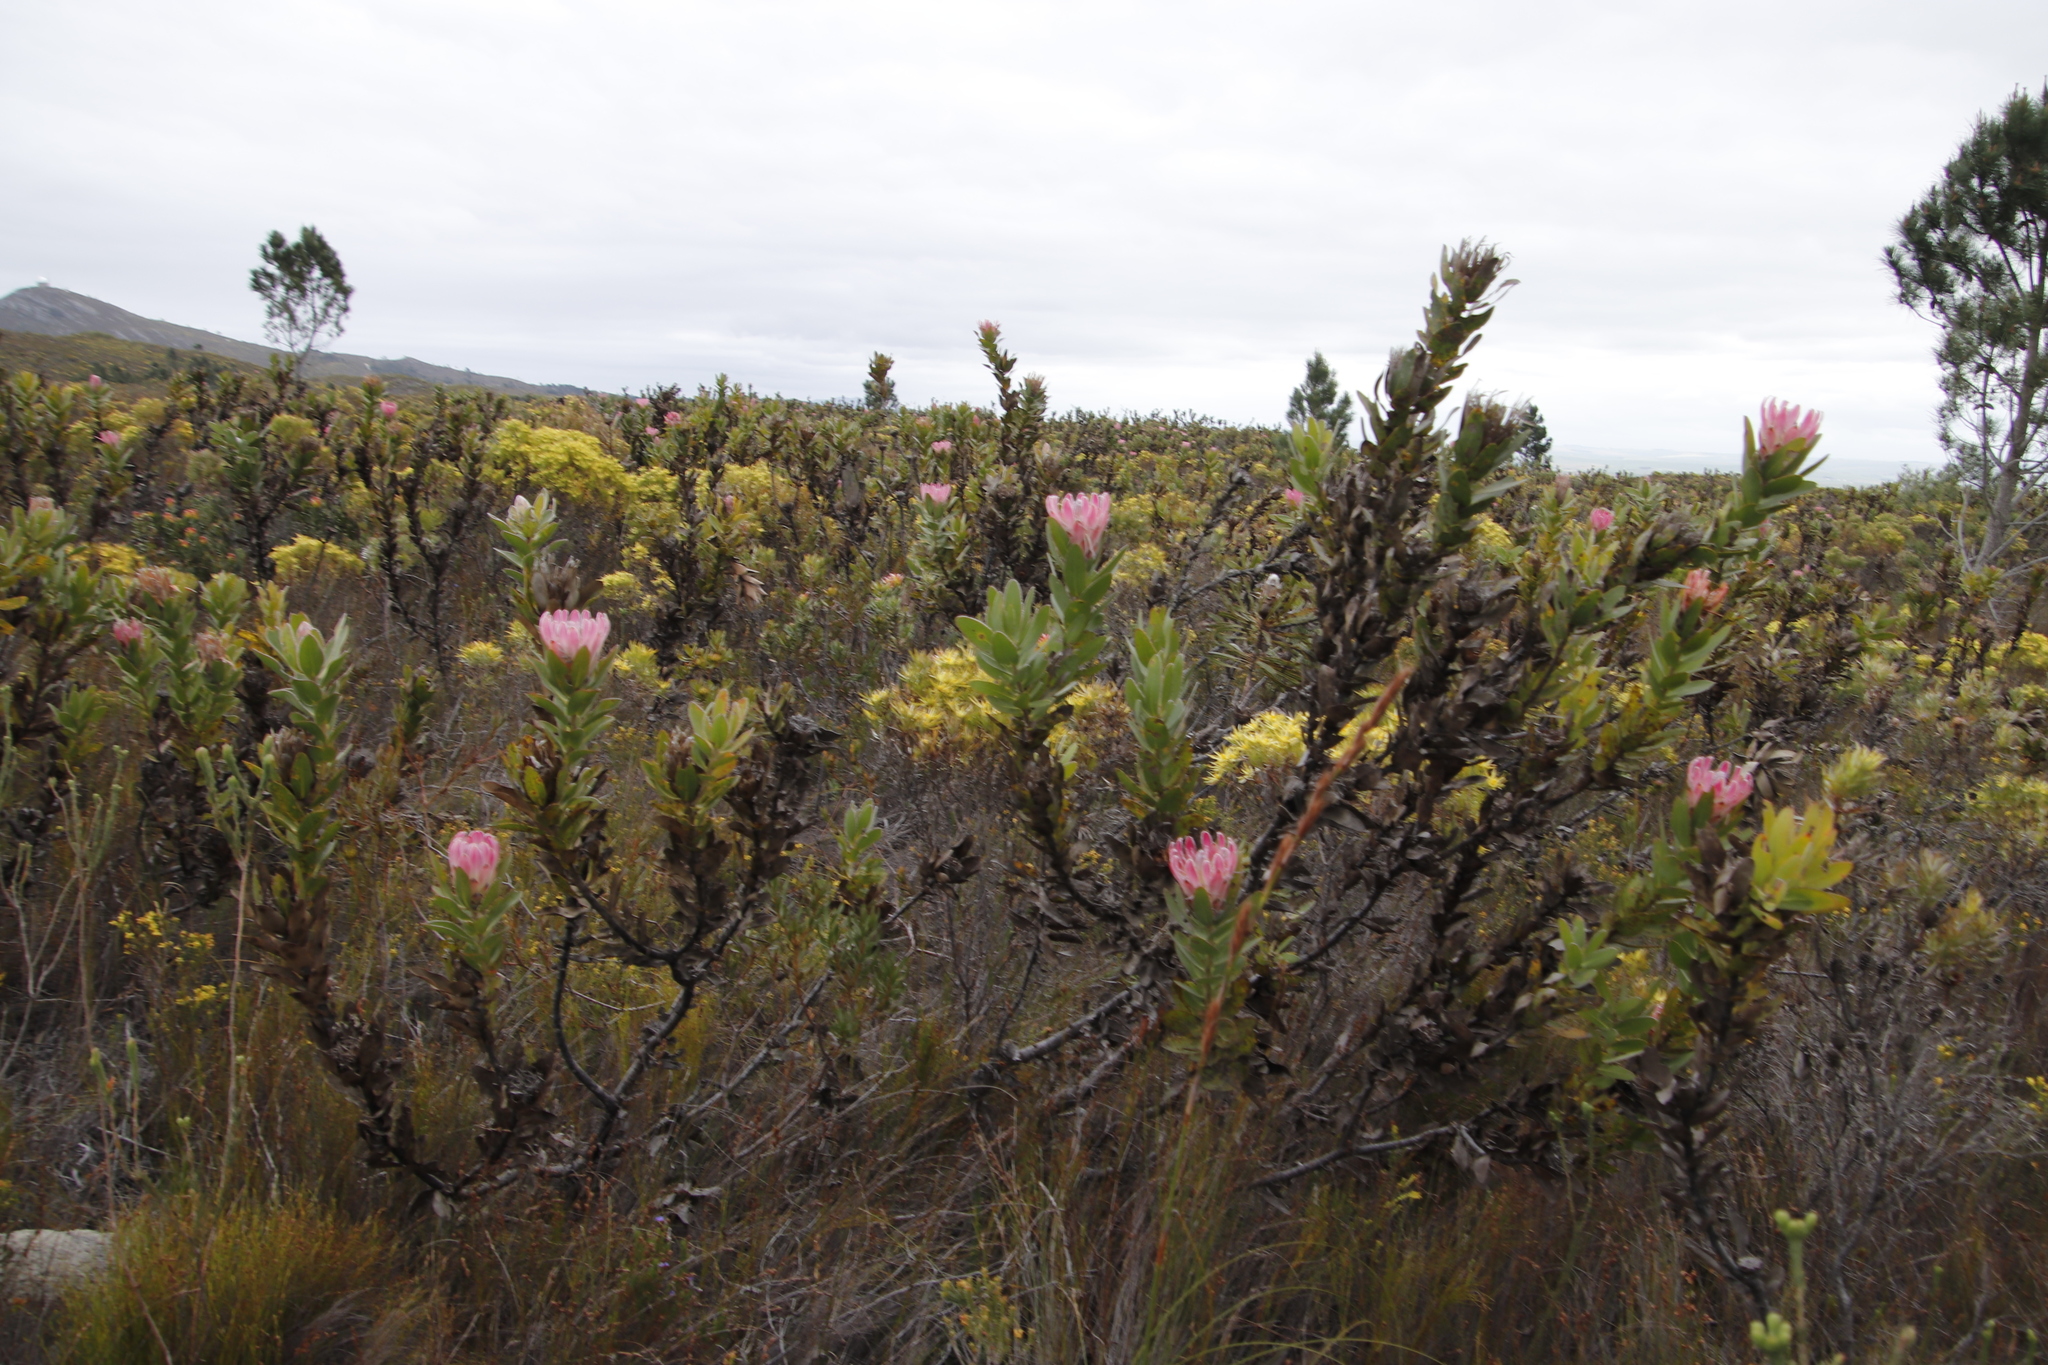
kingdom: Plantae
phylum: Tracheophyta
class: Magnoliopsida
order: Proteales
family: Proteaceae
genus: Protea
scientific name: Protea compacta
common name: Bot river protea
